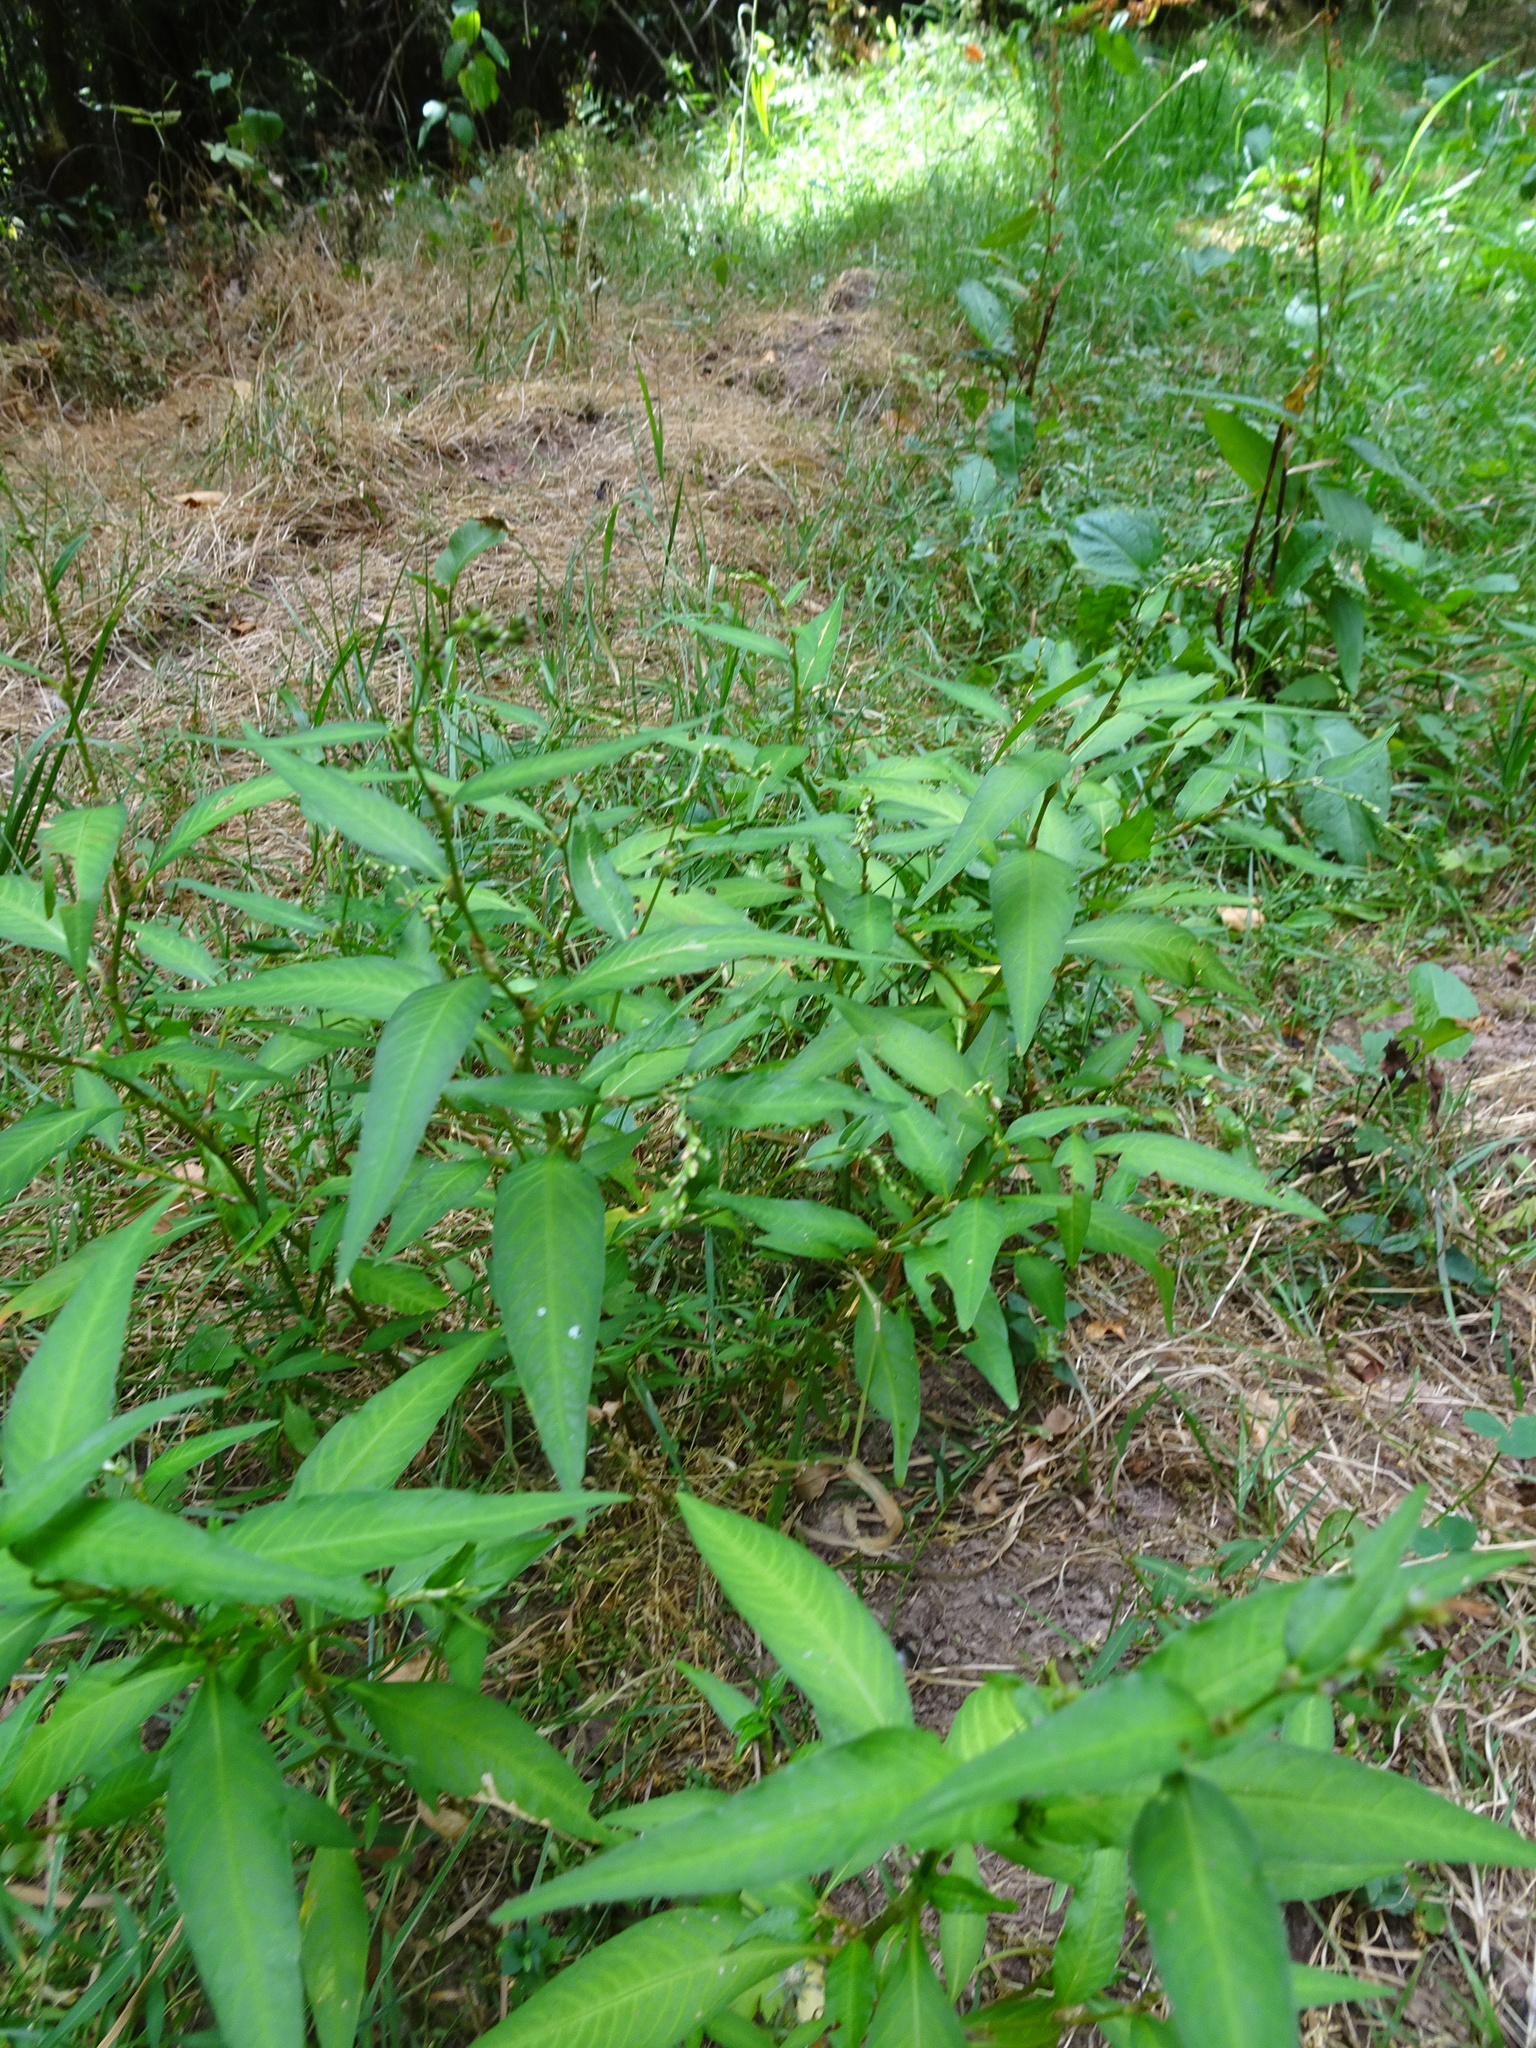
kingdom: Plantae
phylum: Tracheophyta
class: Magnoliopsida
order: Caryophyllales
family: Polygonaceae
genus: Persicaria
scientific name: Persicaria hydropiper
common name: Water-pepper
